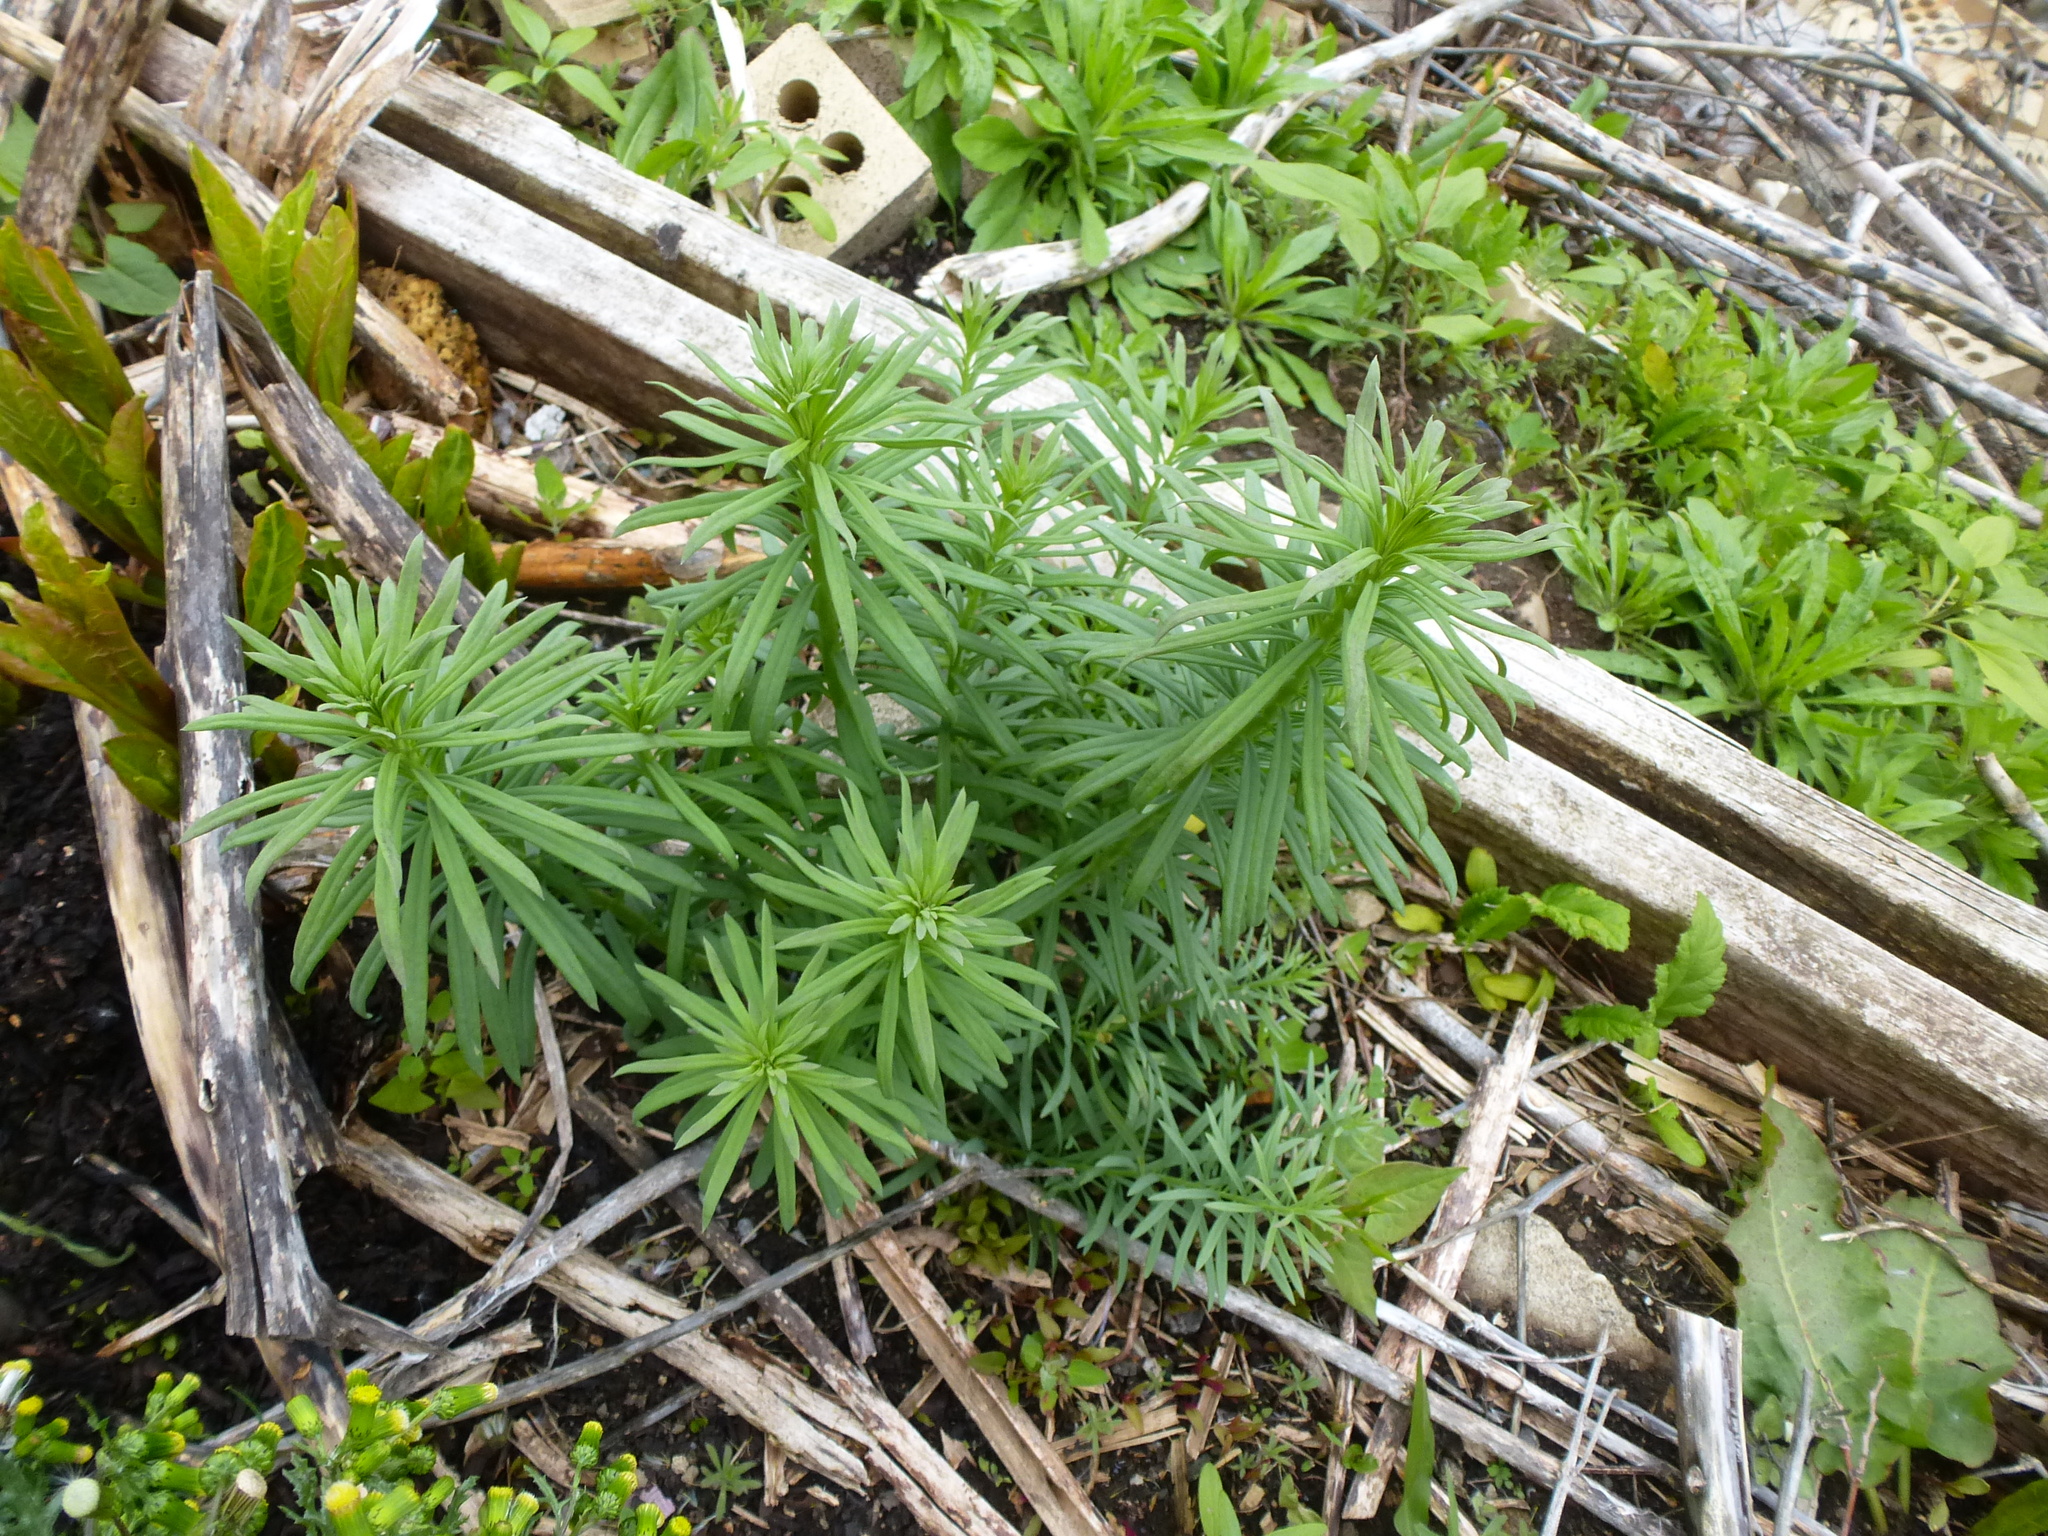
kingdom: Plantae
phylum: Tracheophyta
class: Magnoliopsida
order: Lamiales
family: Plantaginaceae
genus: Linaria
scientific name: Linaria vulgaris
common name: Butter and eggs
